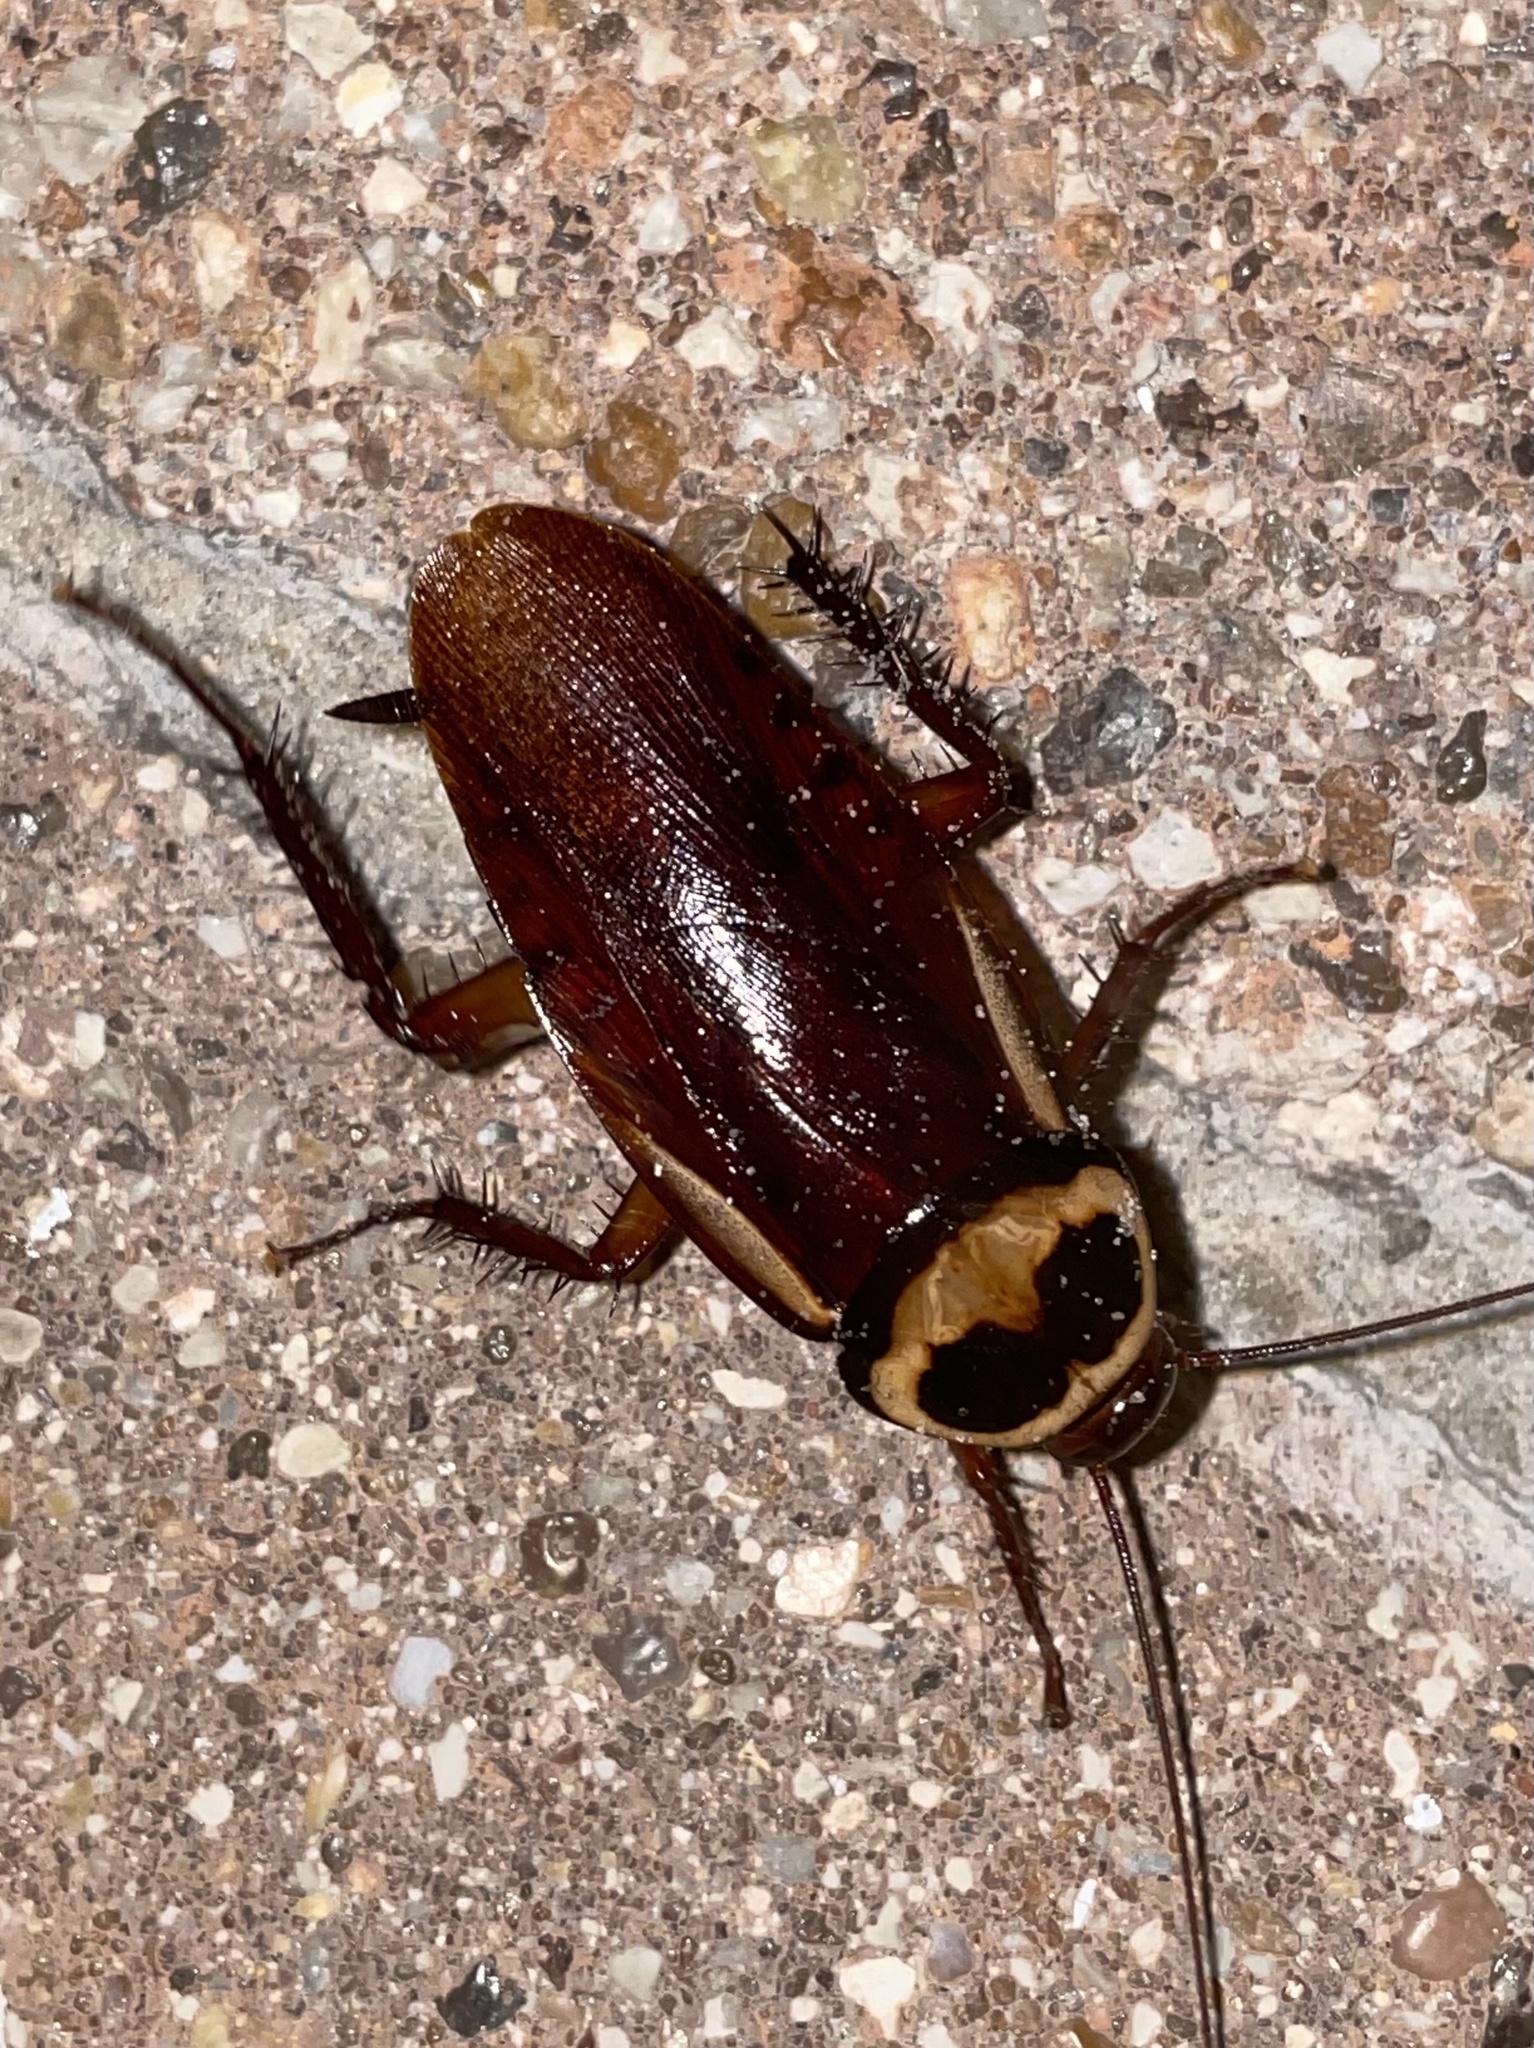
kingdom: Animalia
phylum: Arthropoda
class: Insecta
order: Blattodea
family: Blattidae
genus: Periplaneta
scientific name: Periplaneta australasiae
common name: Australian cockroach
